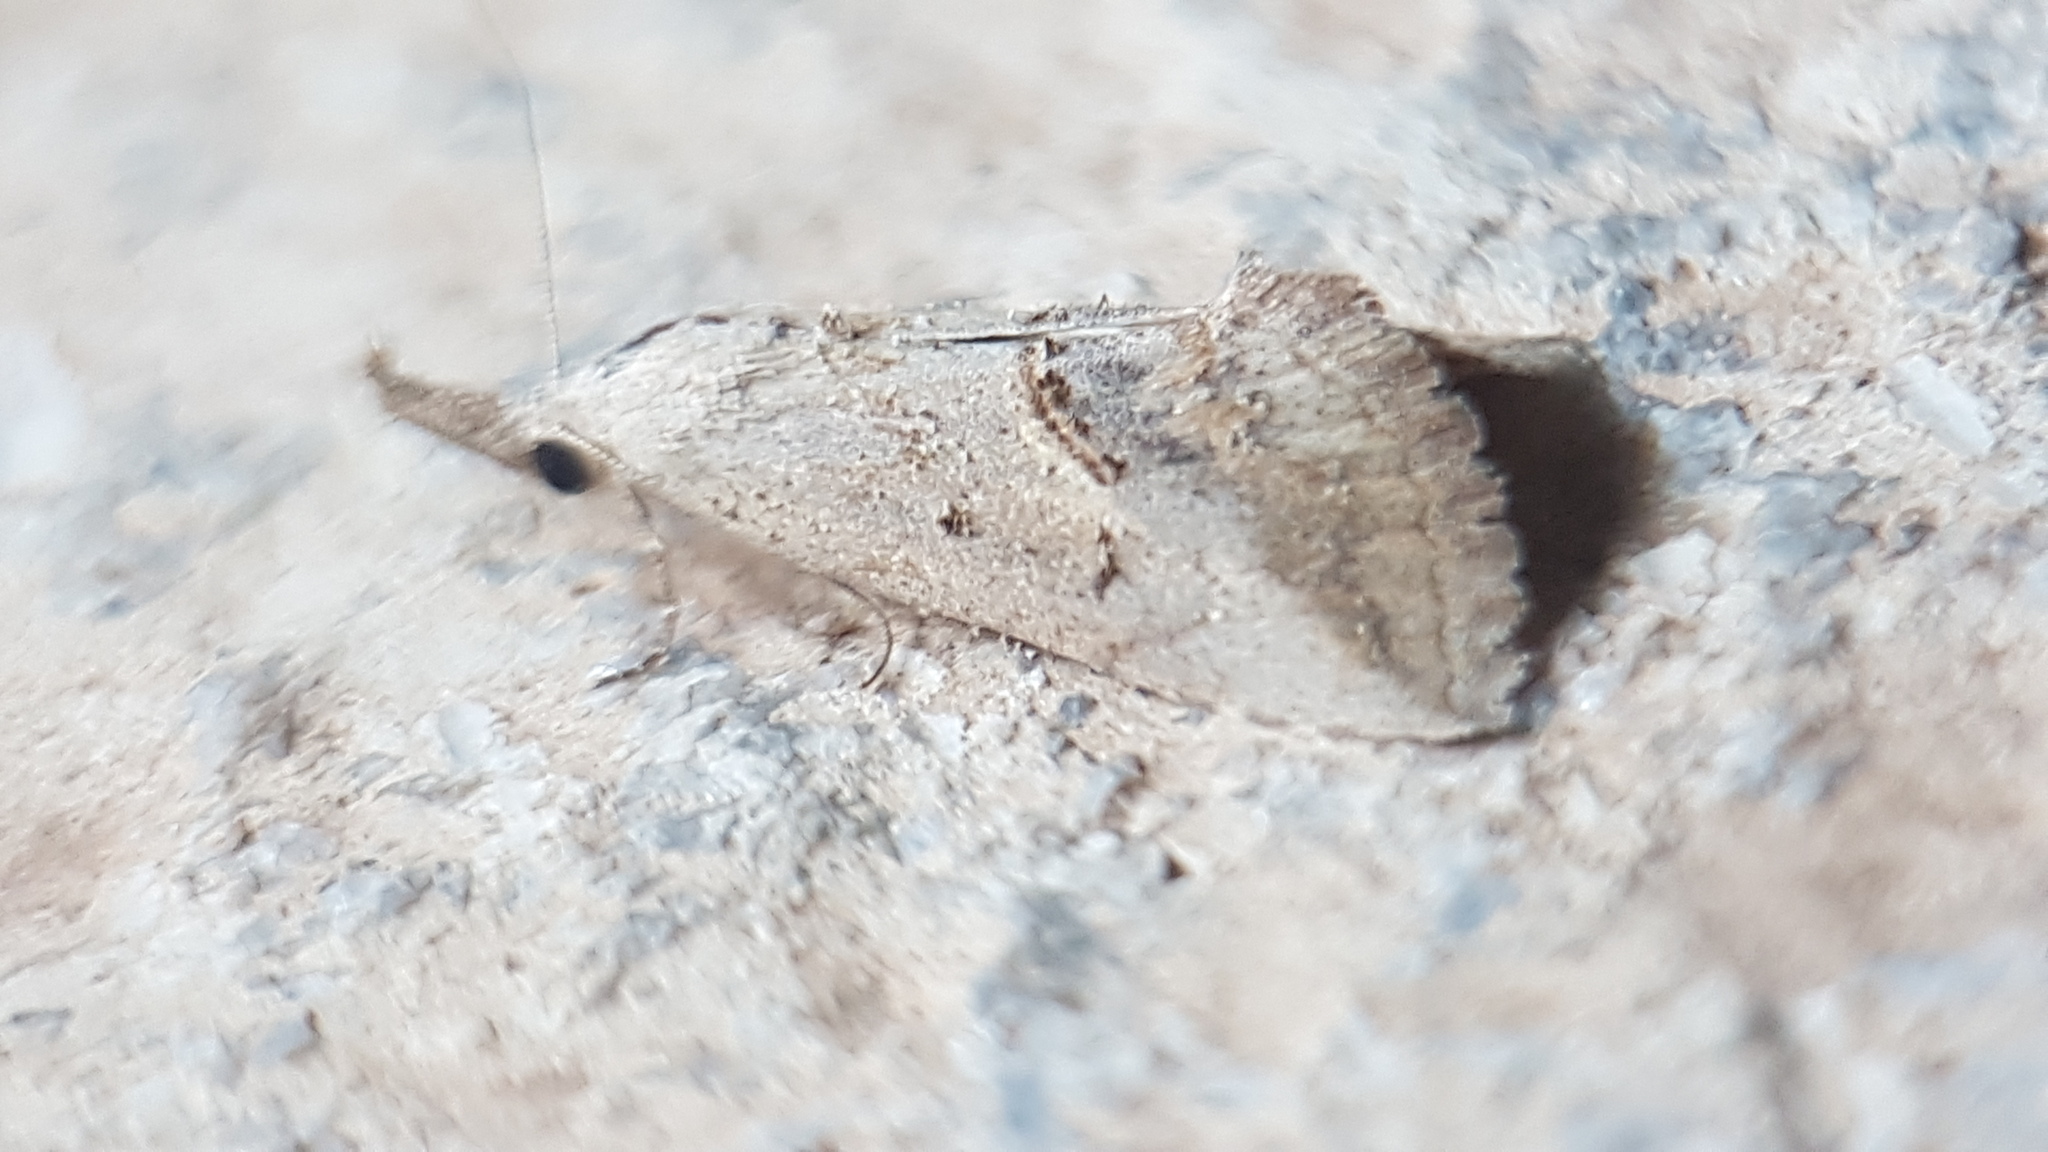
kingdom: Animalia
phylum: Arthropoda
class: Insecta
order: Lepidoptera
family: Erebidae
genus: Zekelita
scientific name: Zekelita ravalis
